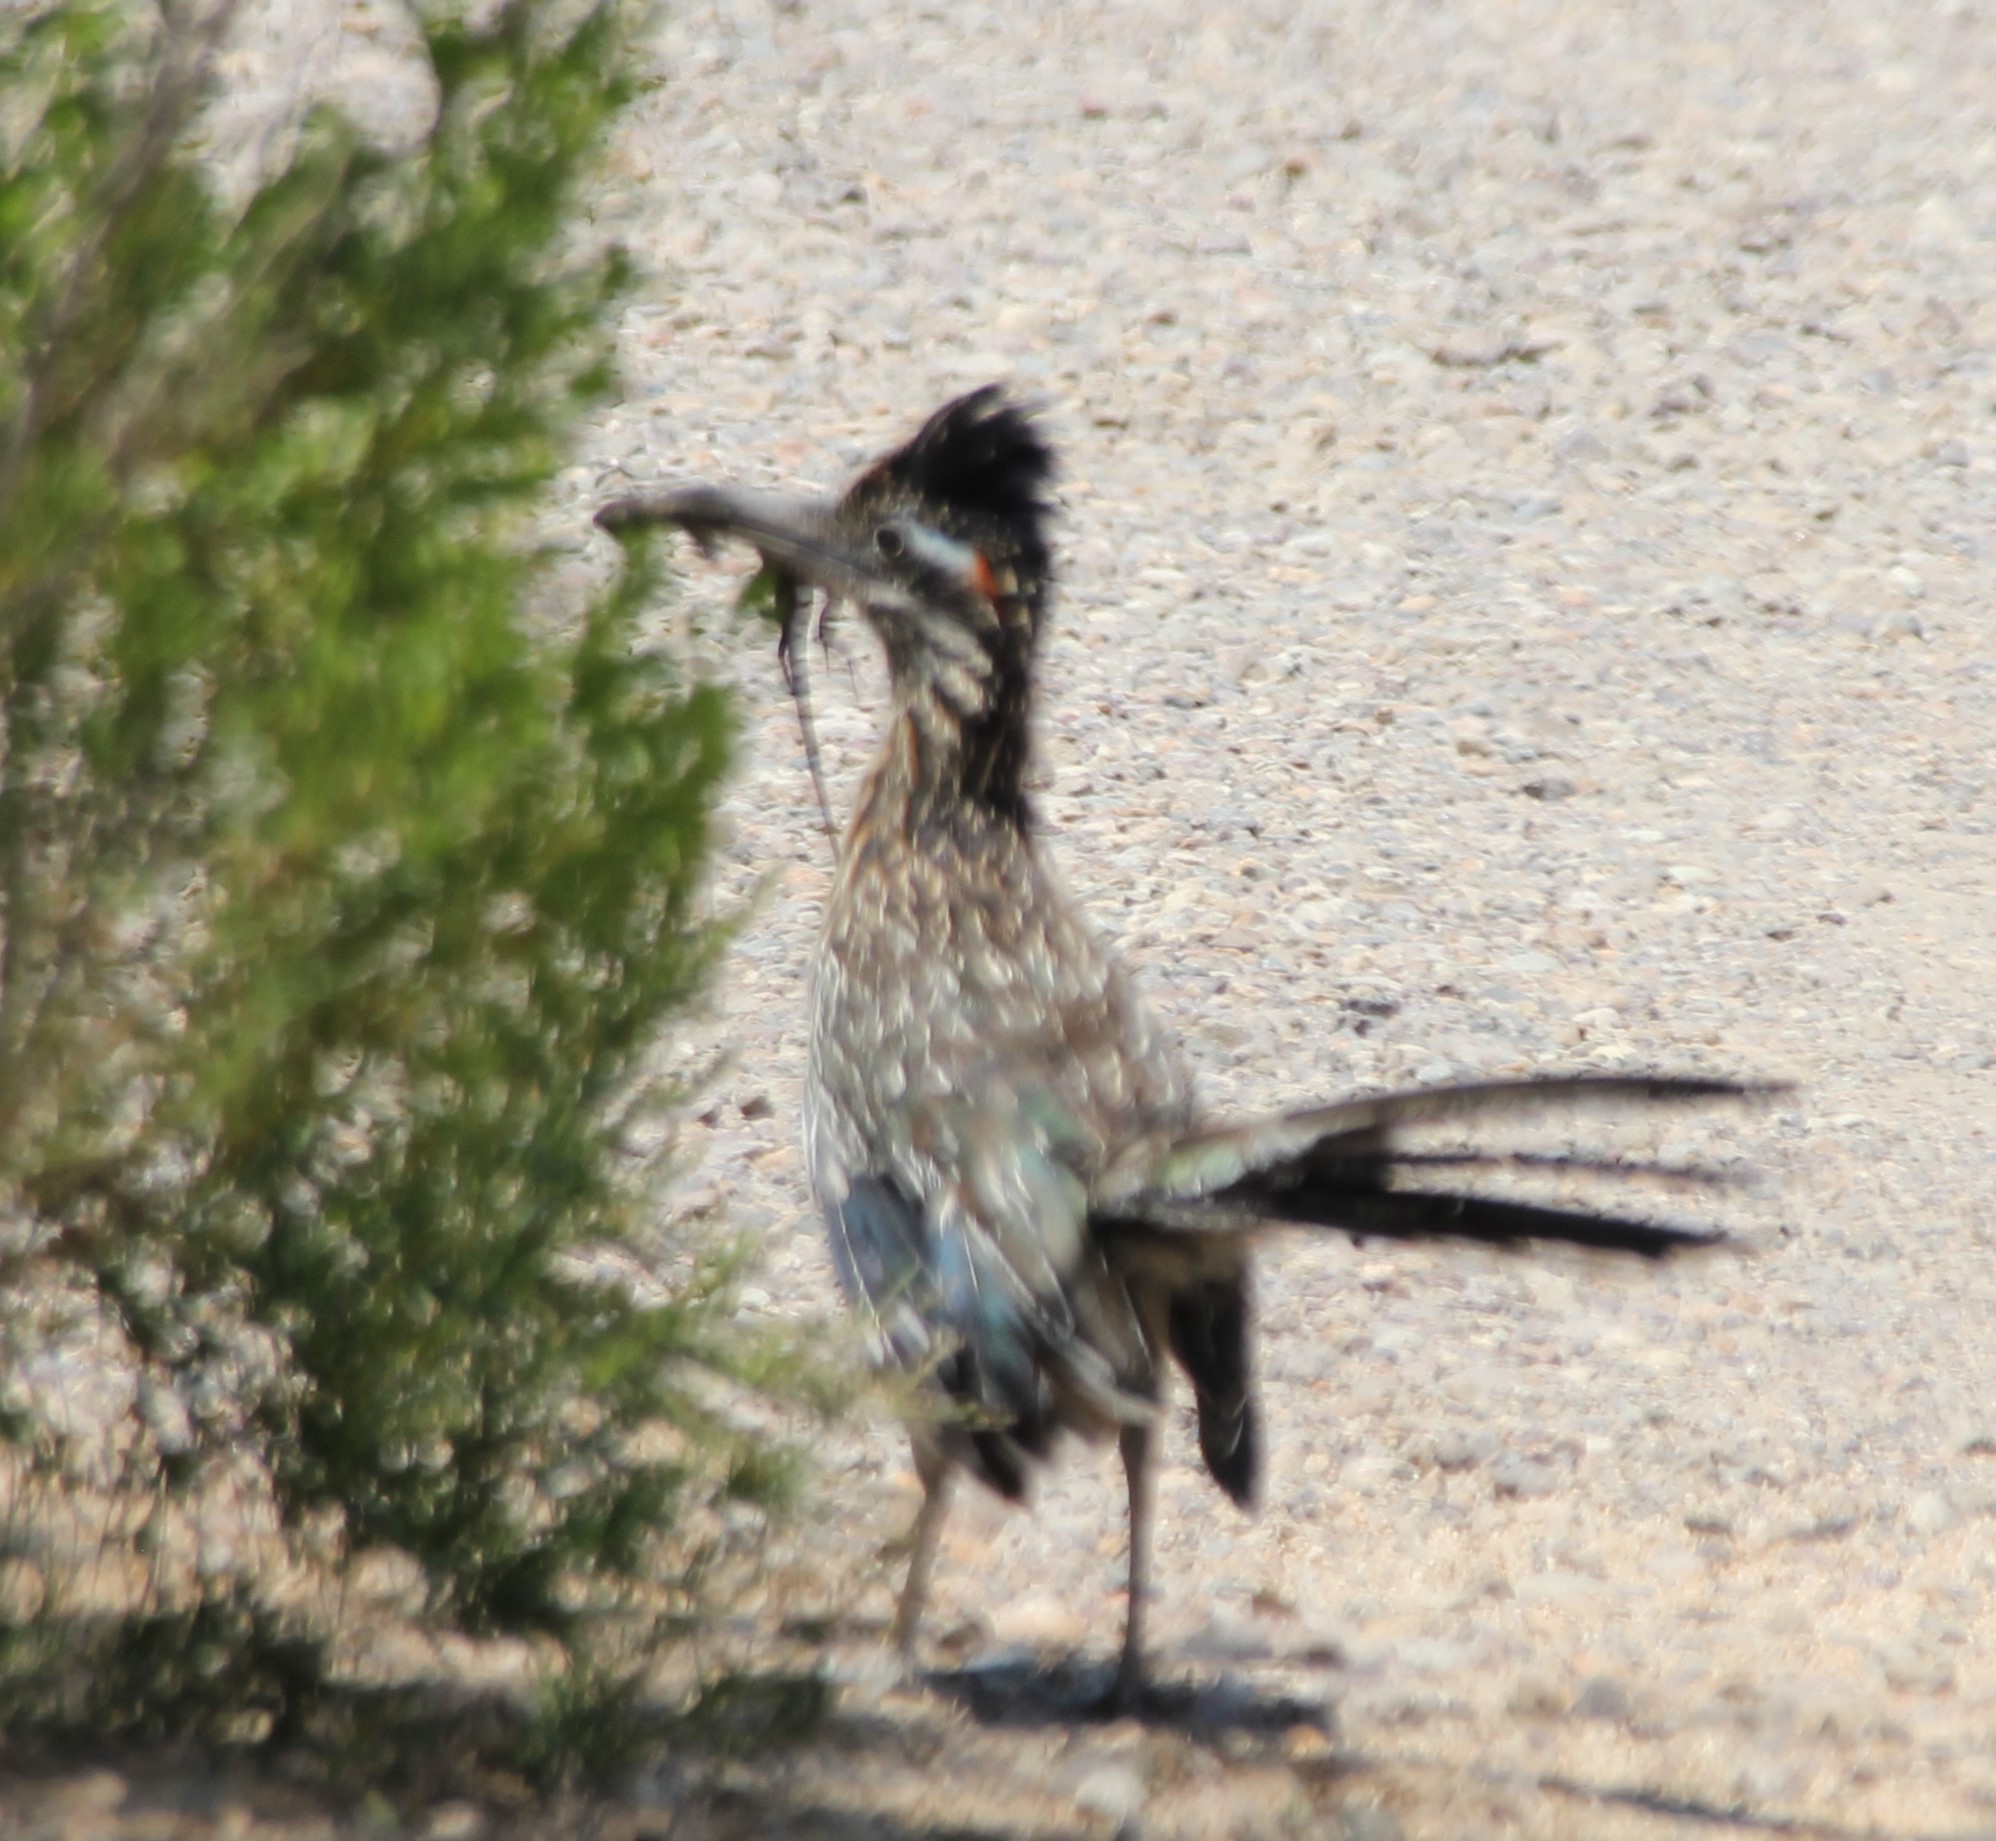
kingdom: Animalia
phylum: Chordata
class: Aves
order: Cuculiformes
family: Cuculidae
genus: Geococcyx
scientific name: Geococcyx californianus
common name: Greater roadrunner
